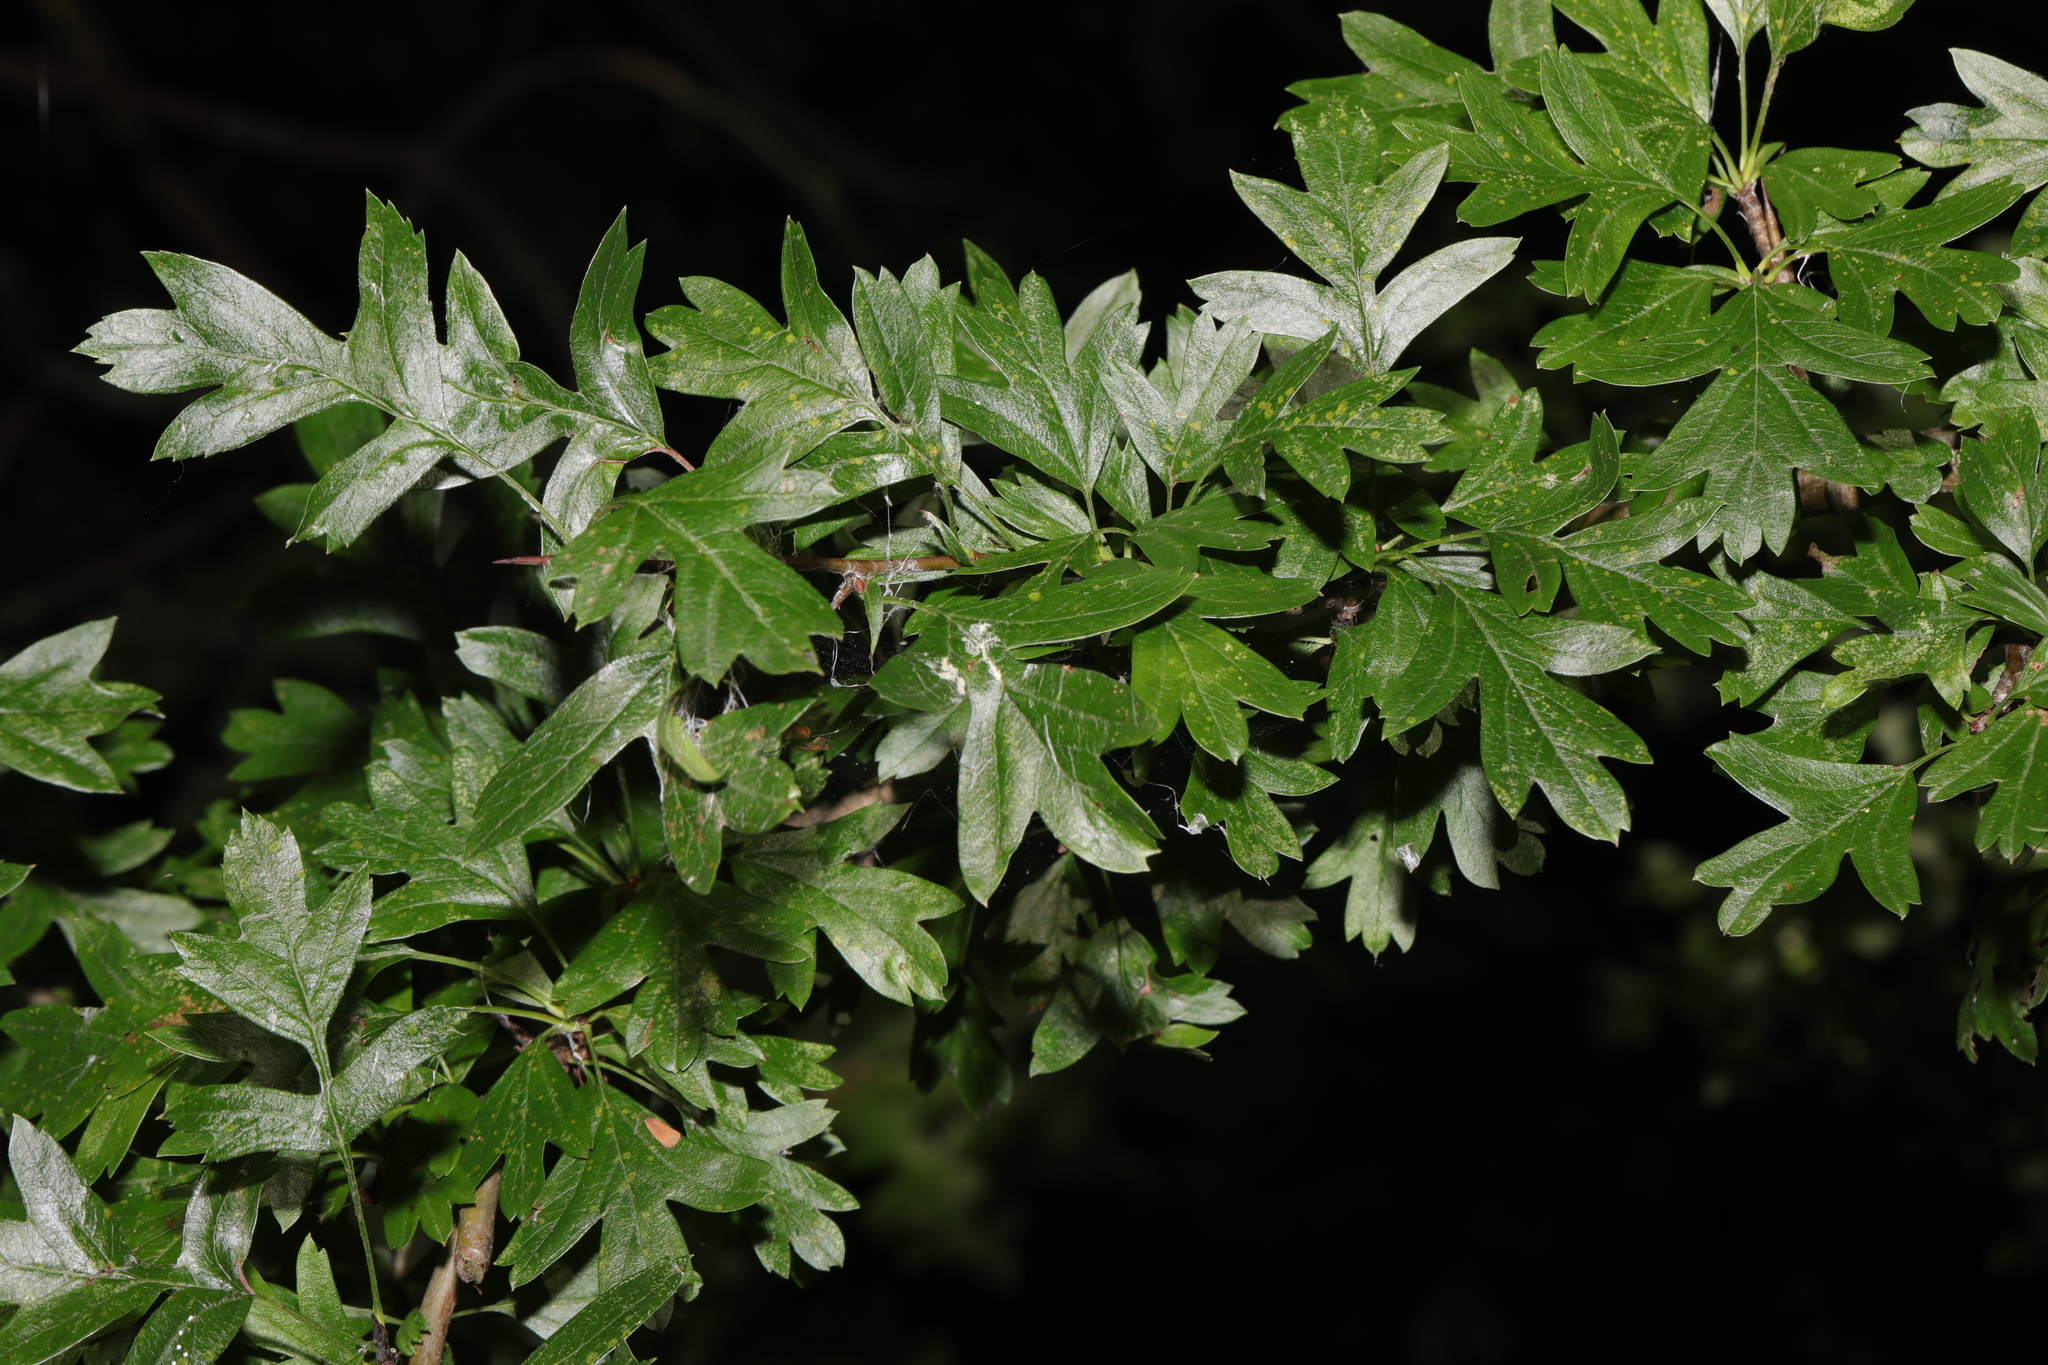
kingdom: Plantae
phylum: Tracheophyta
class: Magnoliopsida
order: Rosales
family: Rosaceae
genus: Crataegus
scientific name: Crataegus monogyna
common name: Hawthorn
